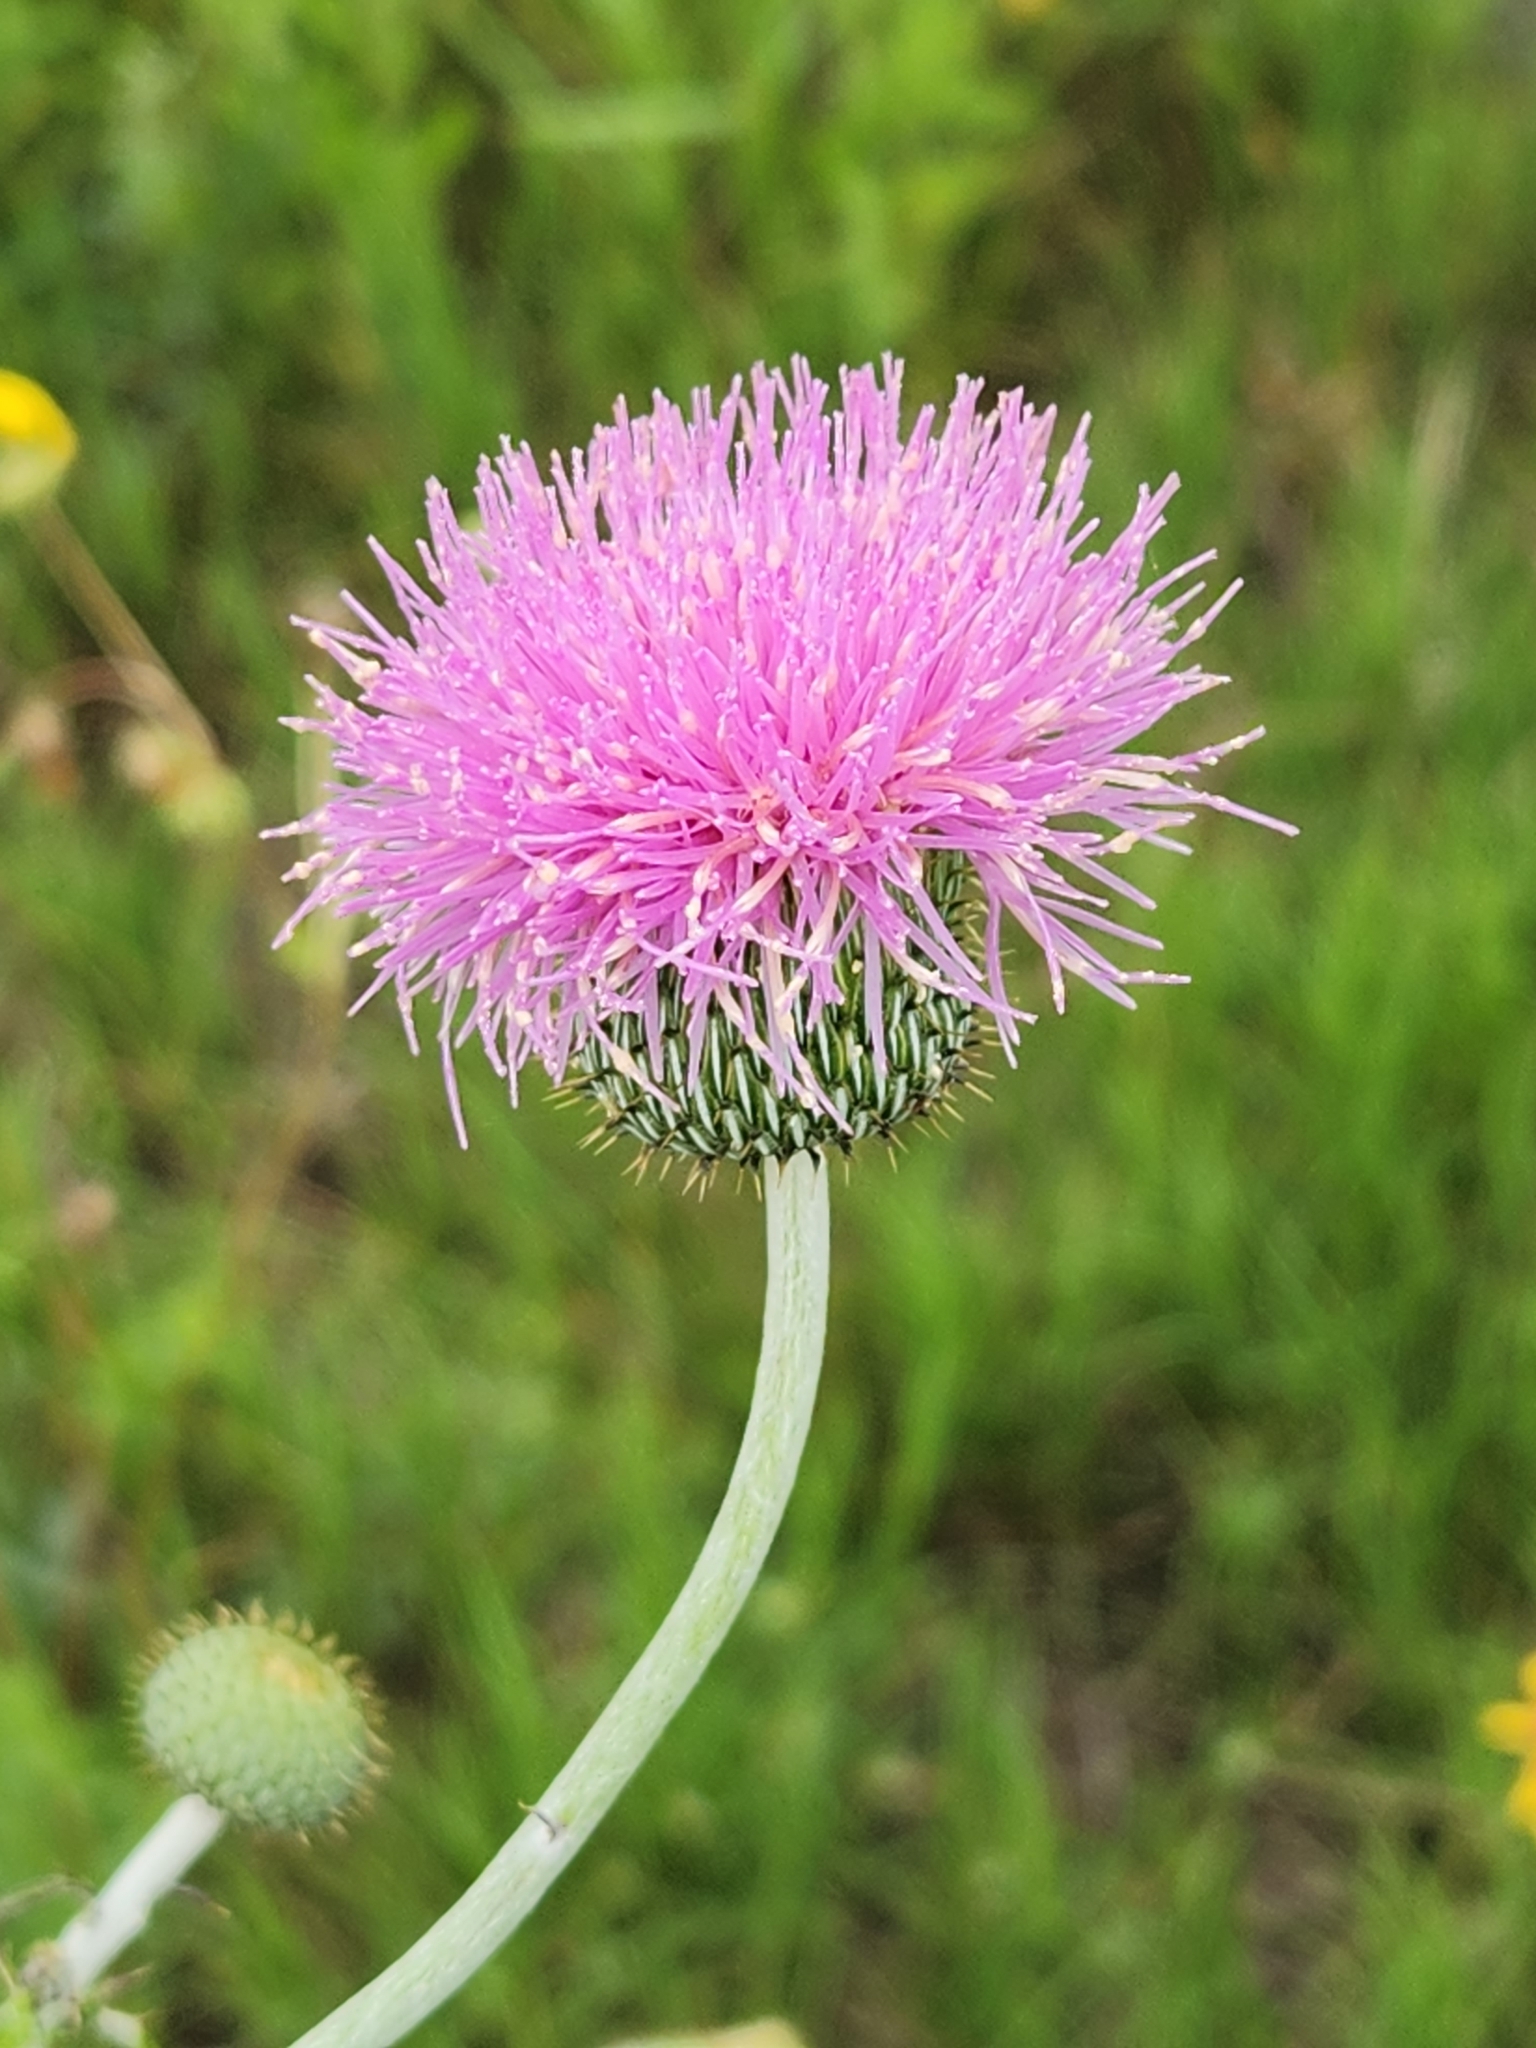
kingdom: Plantae
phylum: Tracheophyta
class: Magnoliopsida
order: Asterales
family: Asteraceae
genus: Cirsium
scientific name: Cirsium texanum
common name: Texas purple thistle
